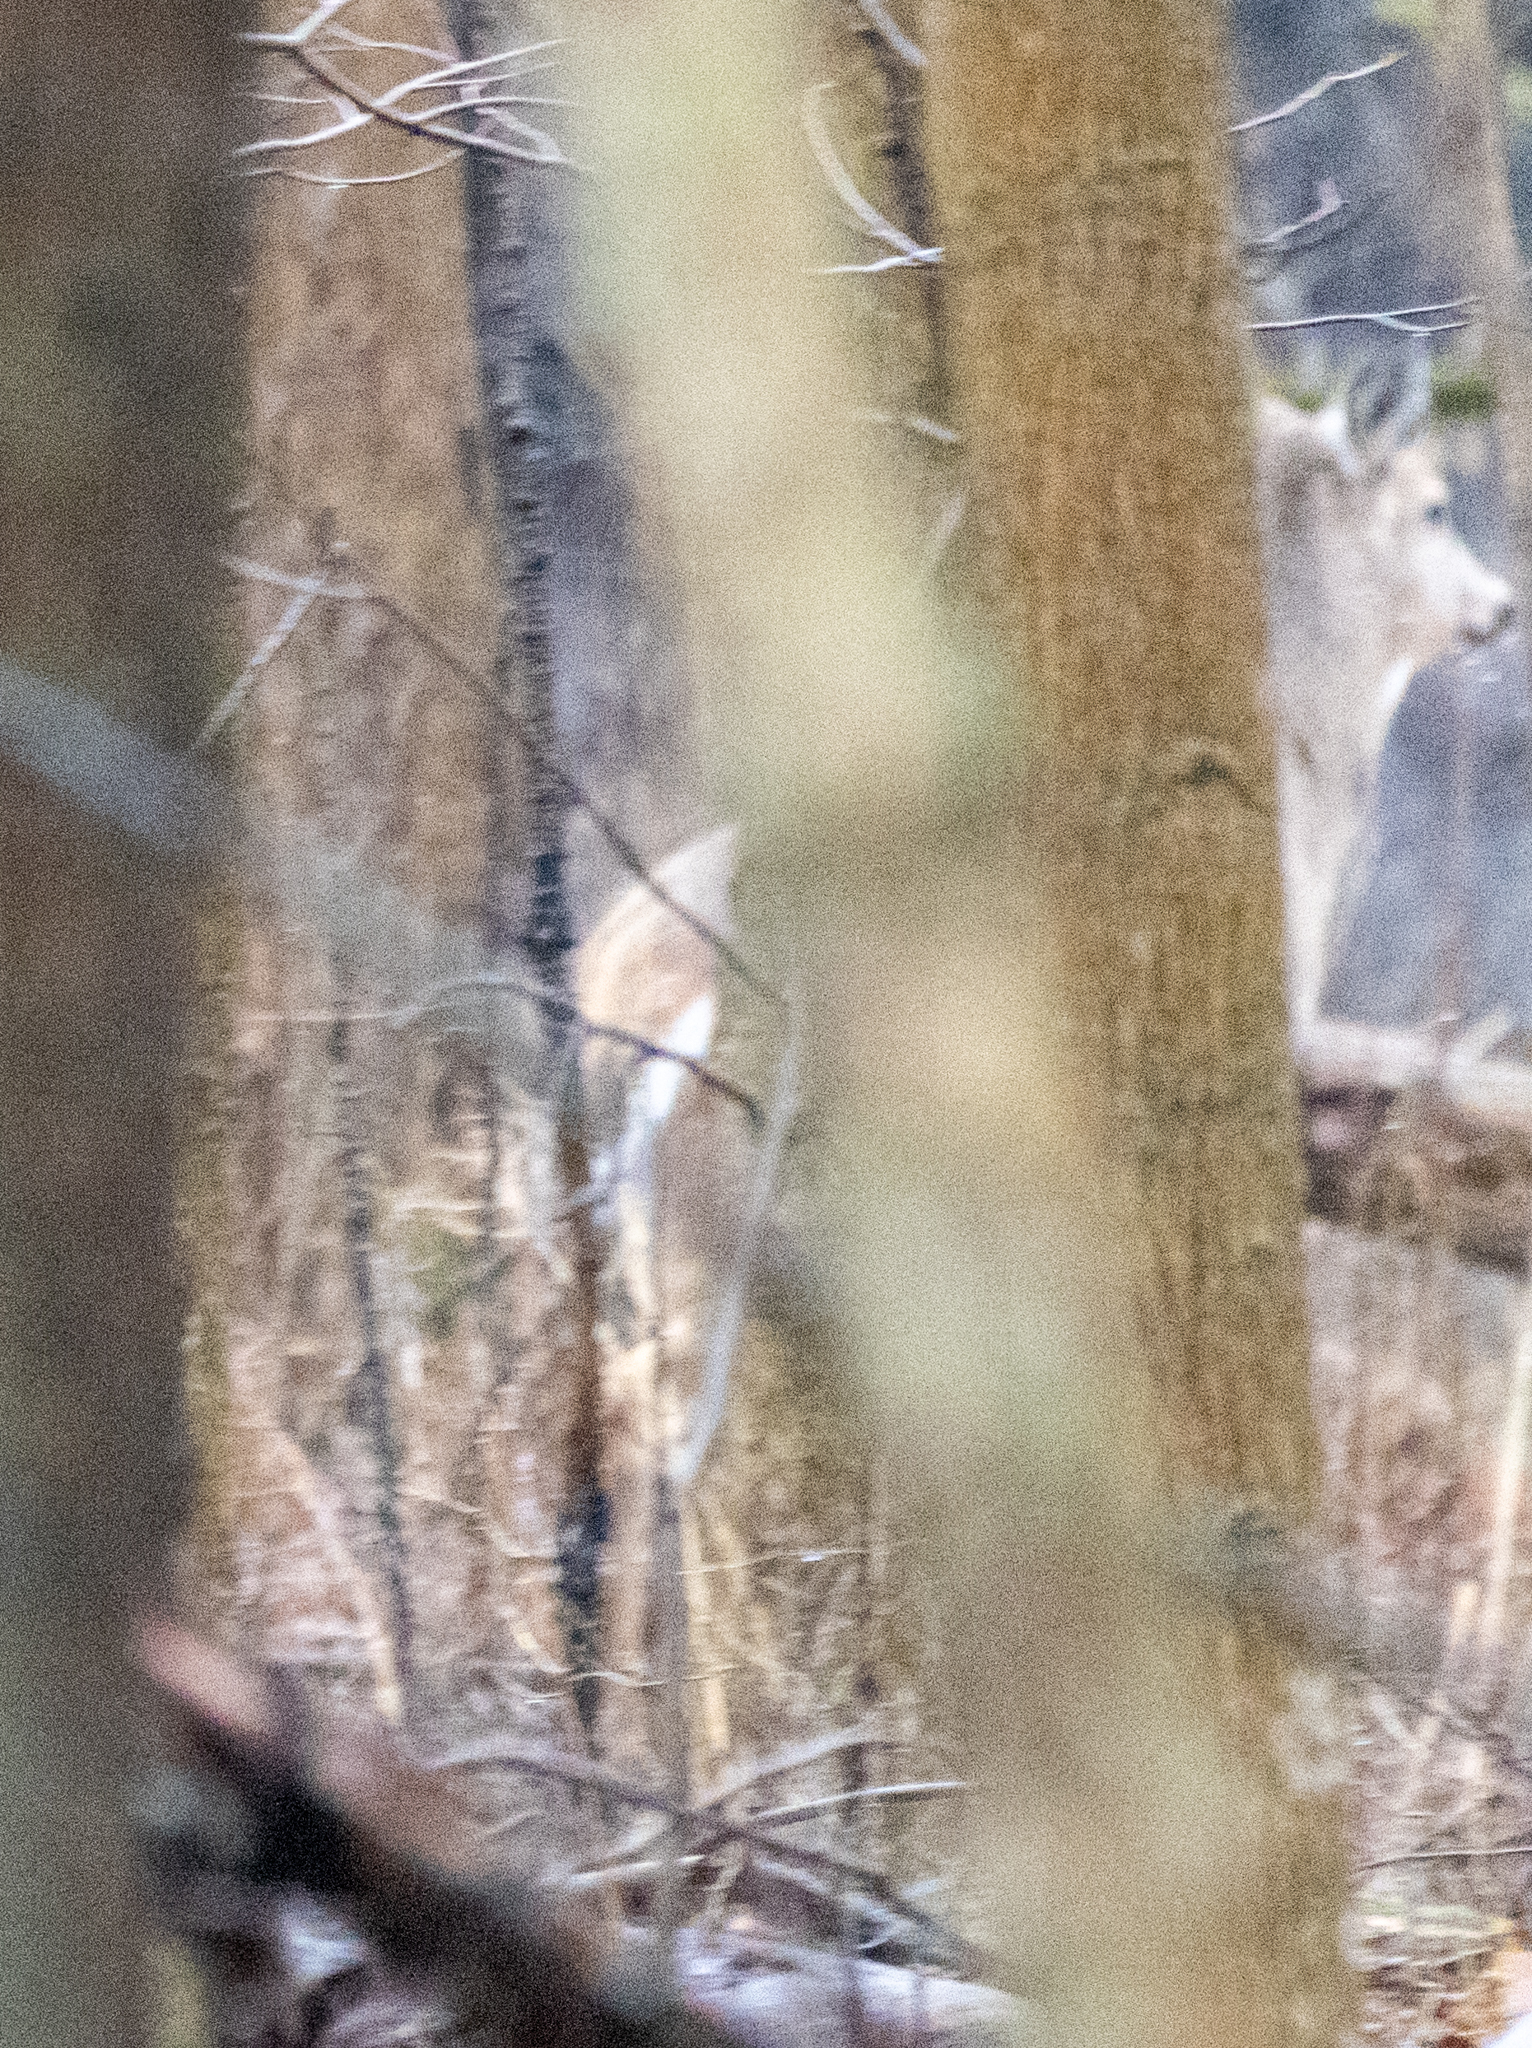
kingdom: Animalia
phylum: Chordata
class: Mammalia
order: Artiodactyla
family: Cervidae
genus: Odocoileus
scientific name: Odocoileus virginianus
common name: White-tailed deer
